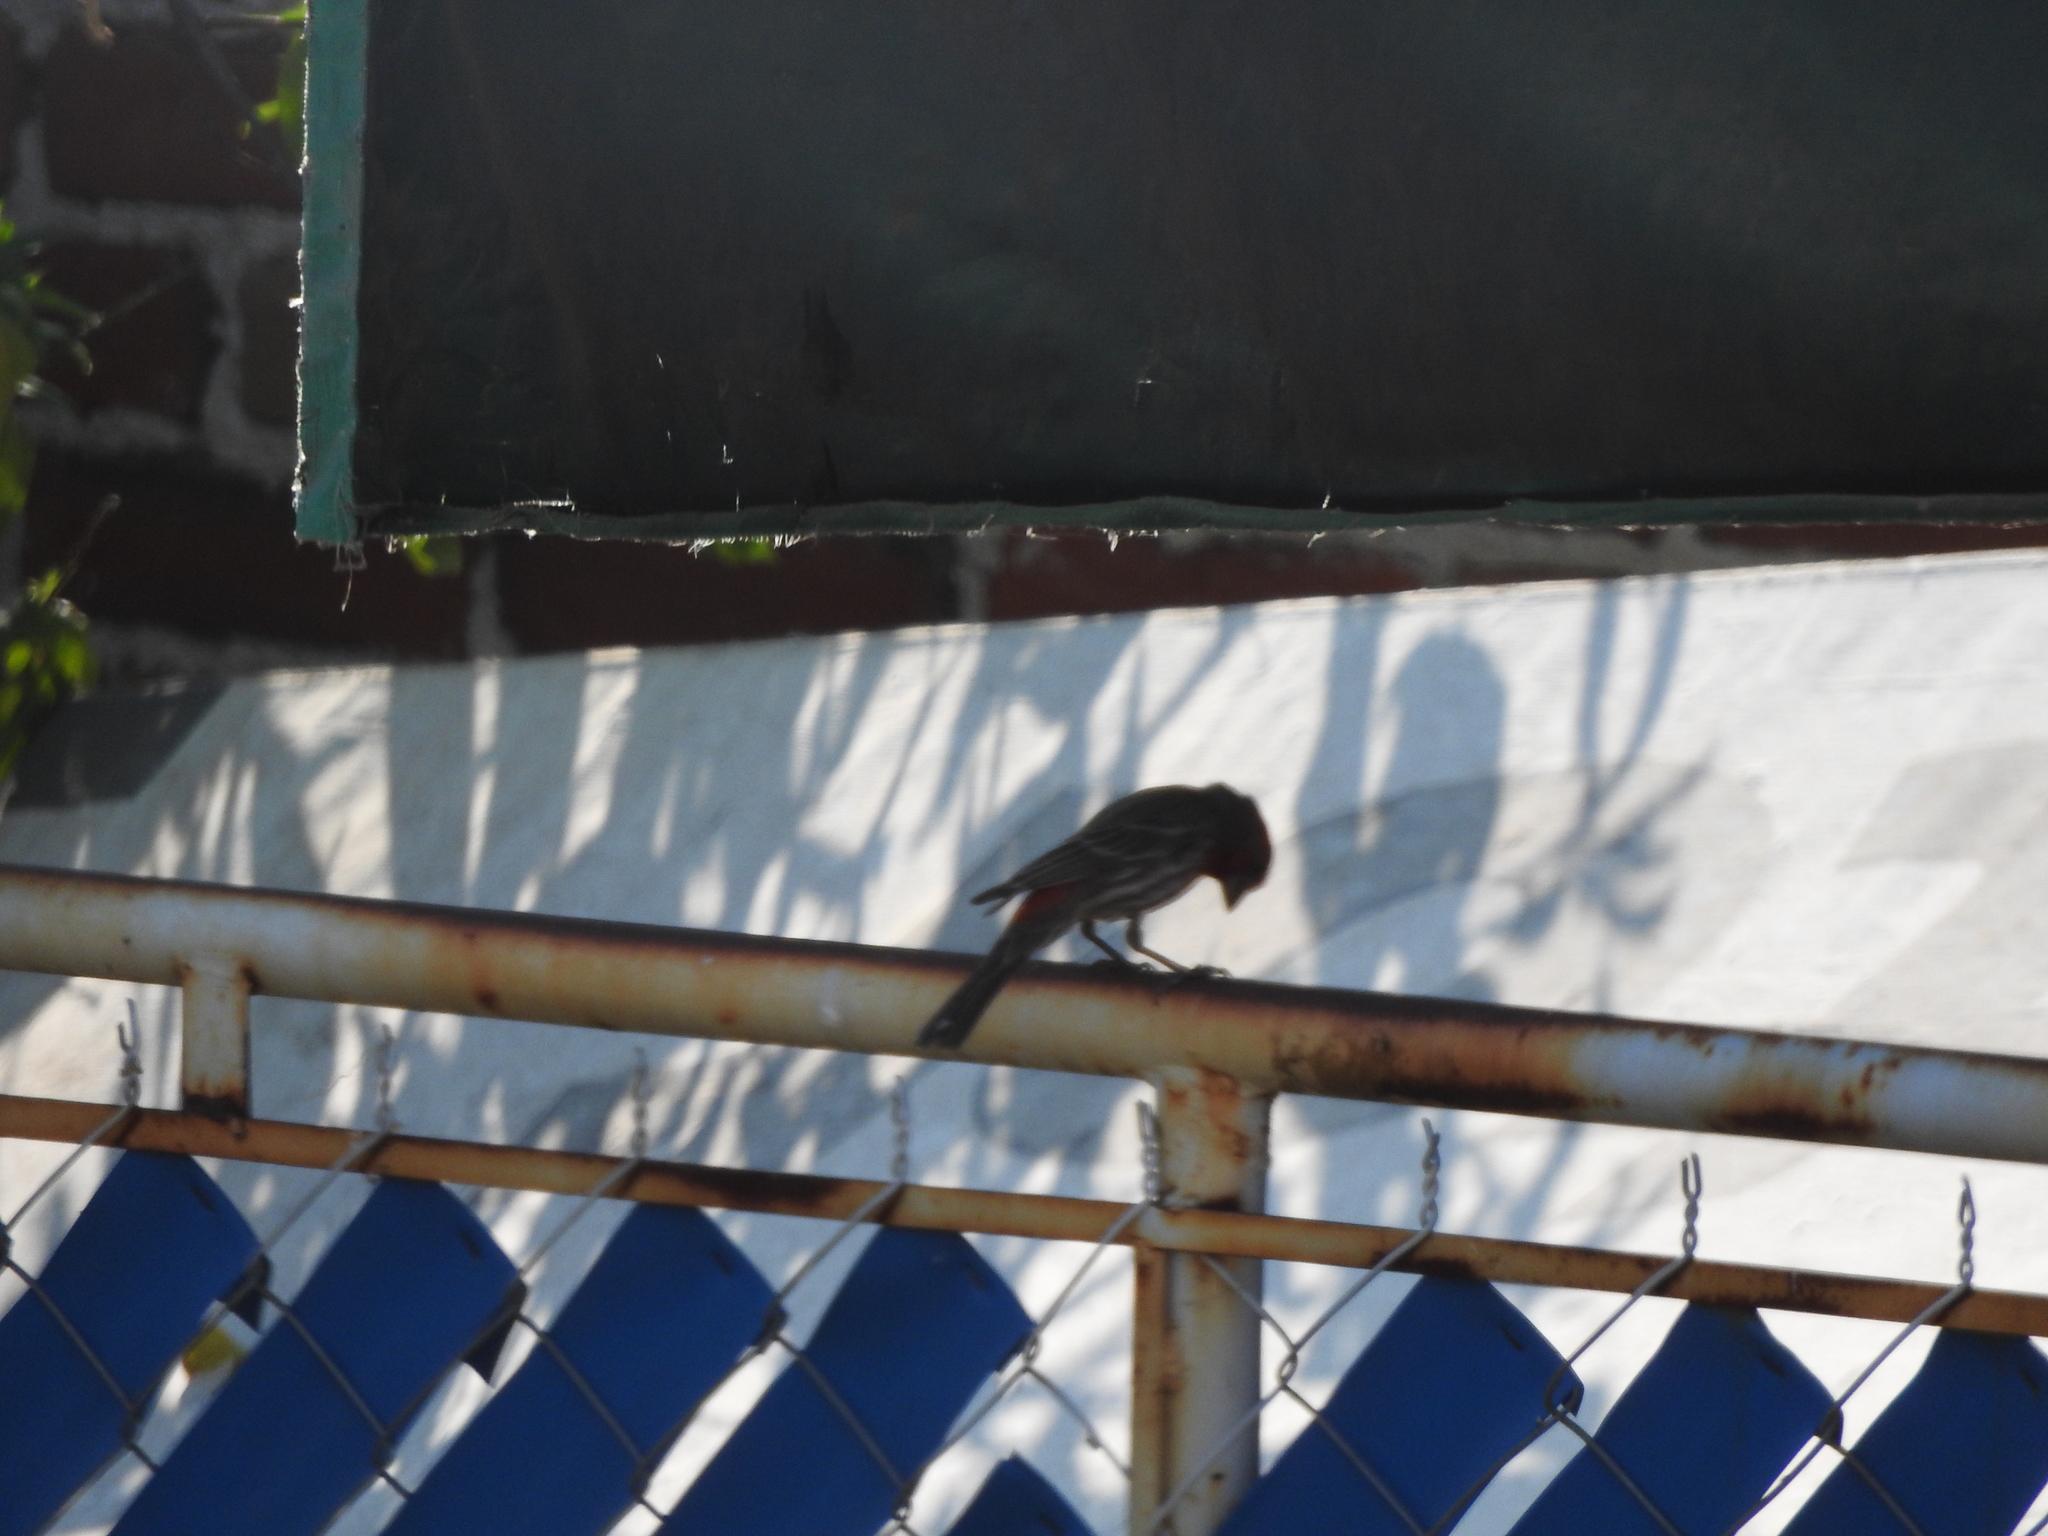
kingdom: Animalia
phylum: Chordata
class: Aves
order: Passeriformes
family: Fringillidae
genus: Haemorhous
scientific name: Haemorhous mexicanus
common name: House finch
